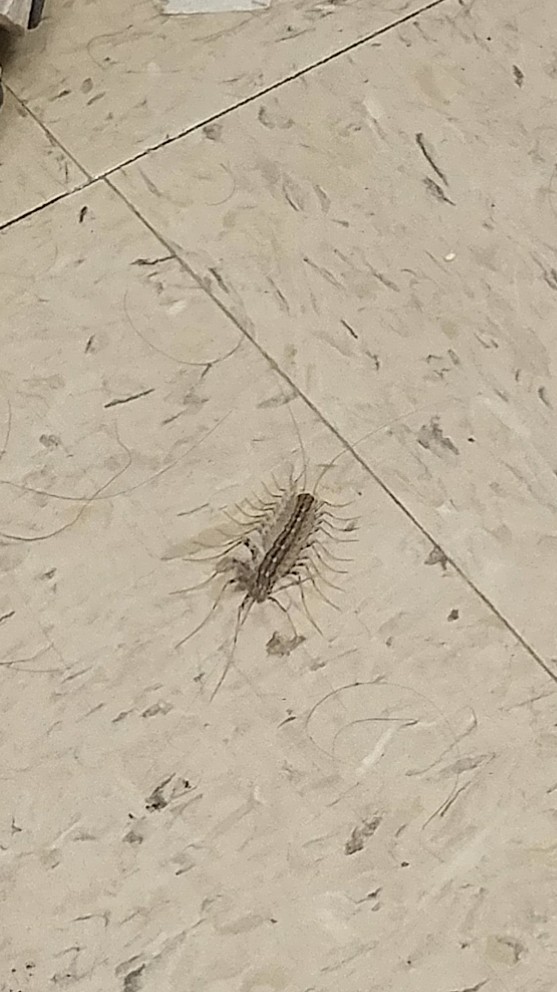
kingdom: Animalia
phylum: Arthropoda
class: Chilopoda
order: Scutigeromorpha
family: Scutigeridae
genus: Scutigera
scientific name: Scutigera coleoptrata
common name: House centipede
